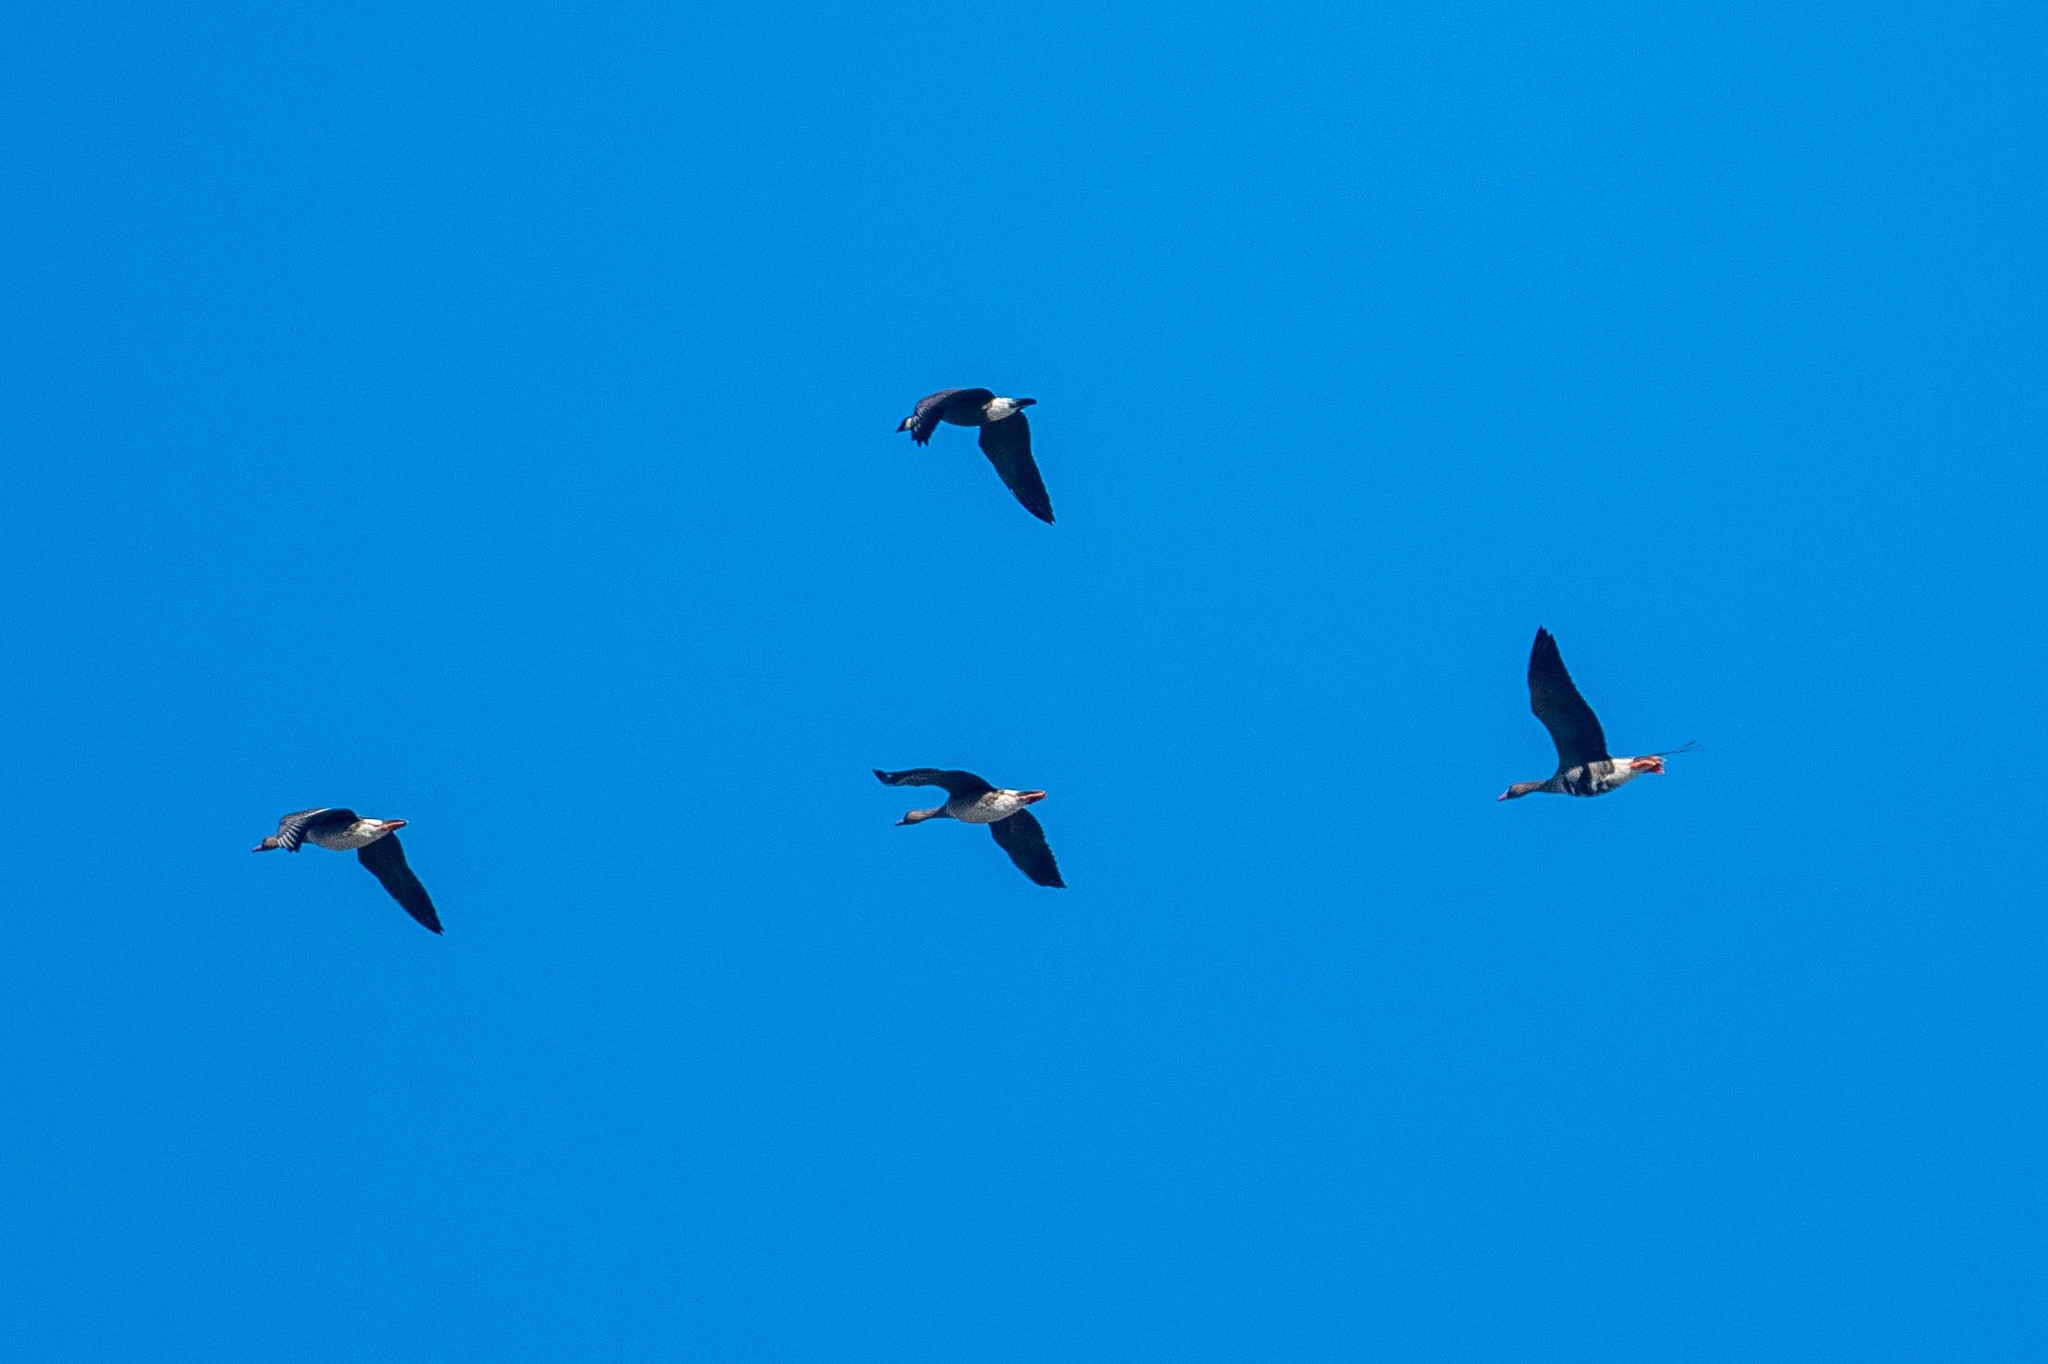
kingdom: Animalia
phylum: Chordata
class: Aves
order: Anseriformes
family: Anatidae
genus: Anser
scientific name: Anser albifrons
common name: Greater white-fronted goose
